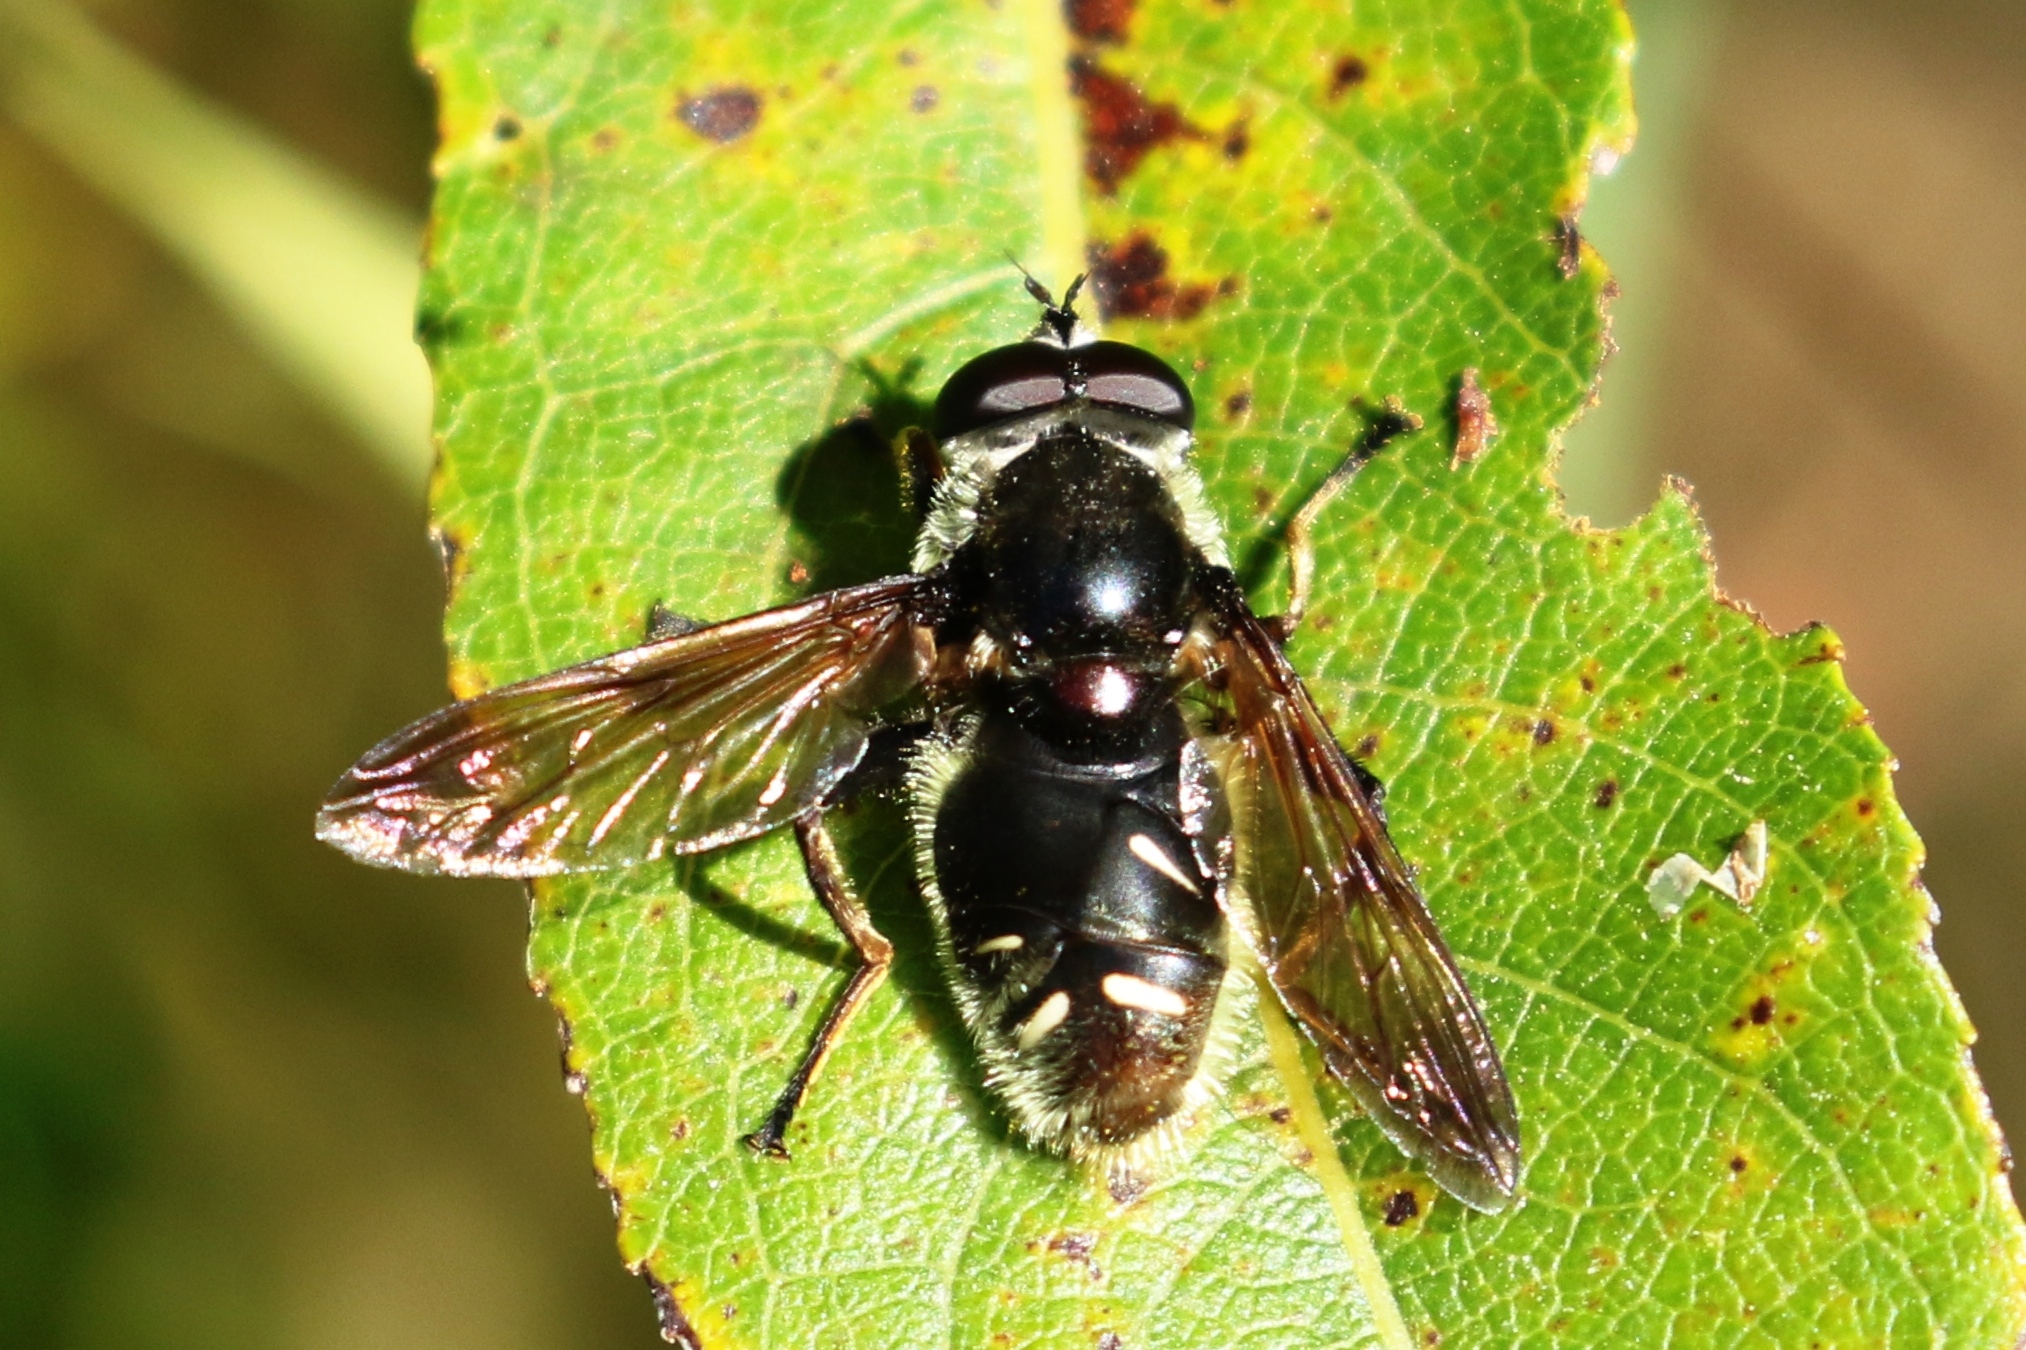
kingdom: Animalia
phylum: Arthropoda
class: Insecta
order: Diptera
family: Syrphidae
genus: Sericomyia
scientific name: Sericomyia militaris
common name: Narrow-banded pond fly
